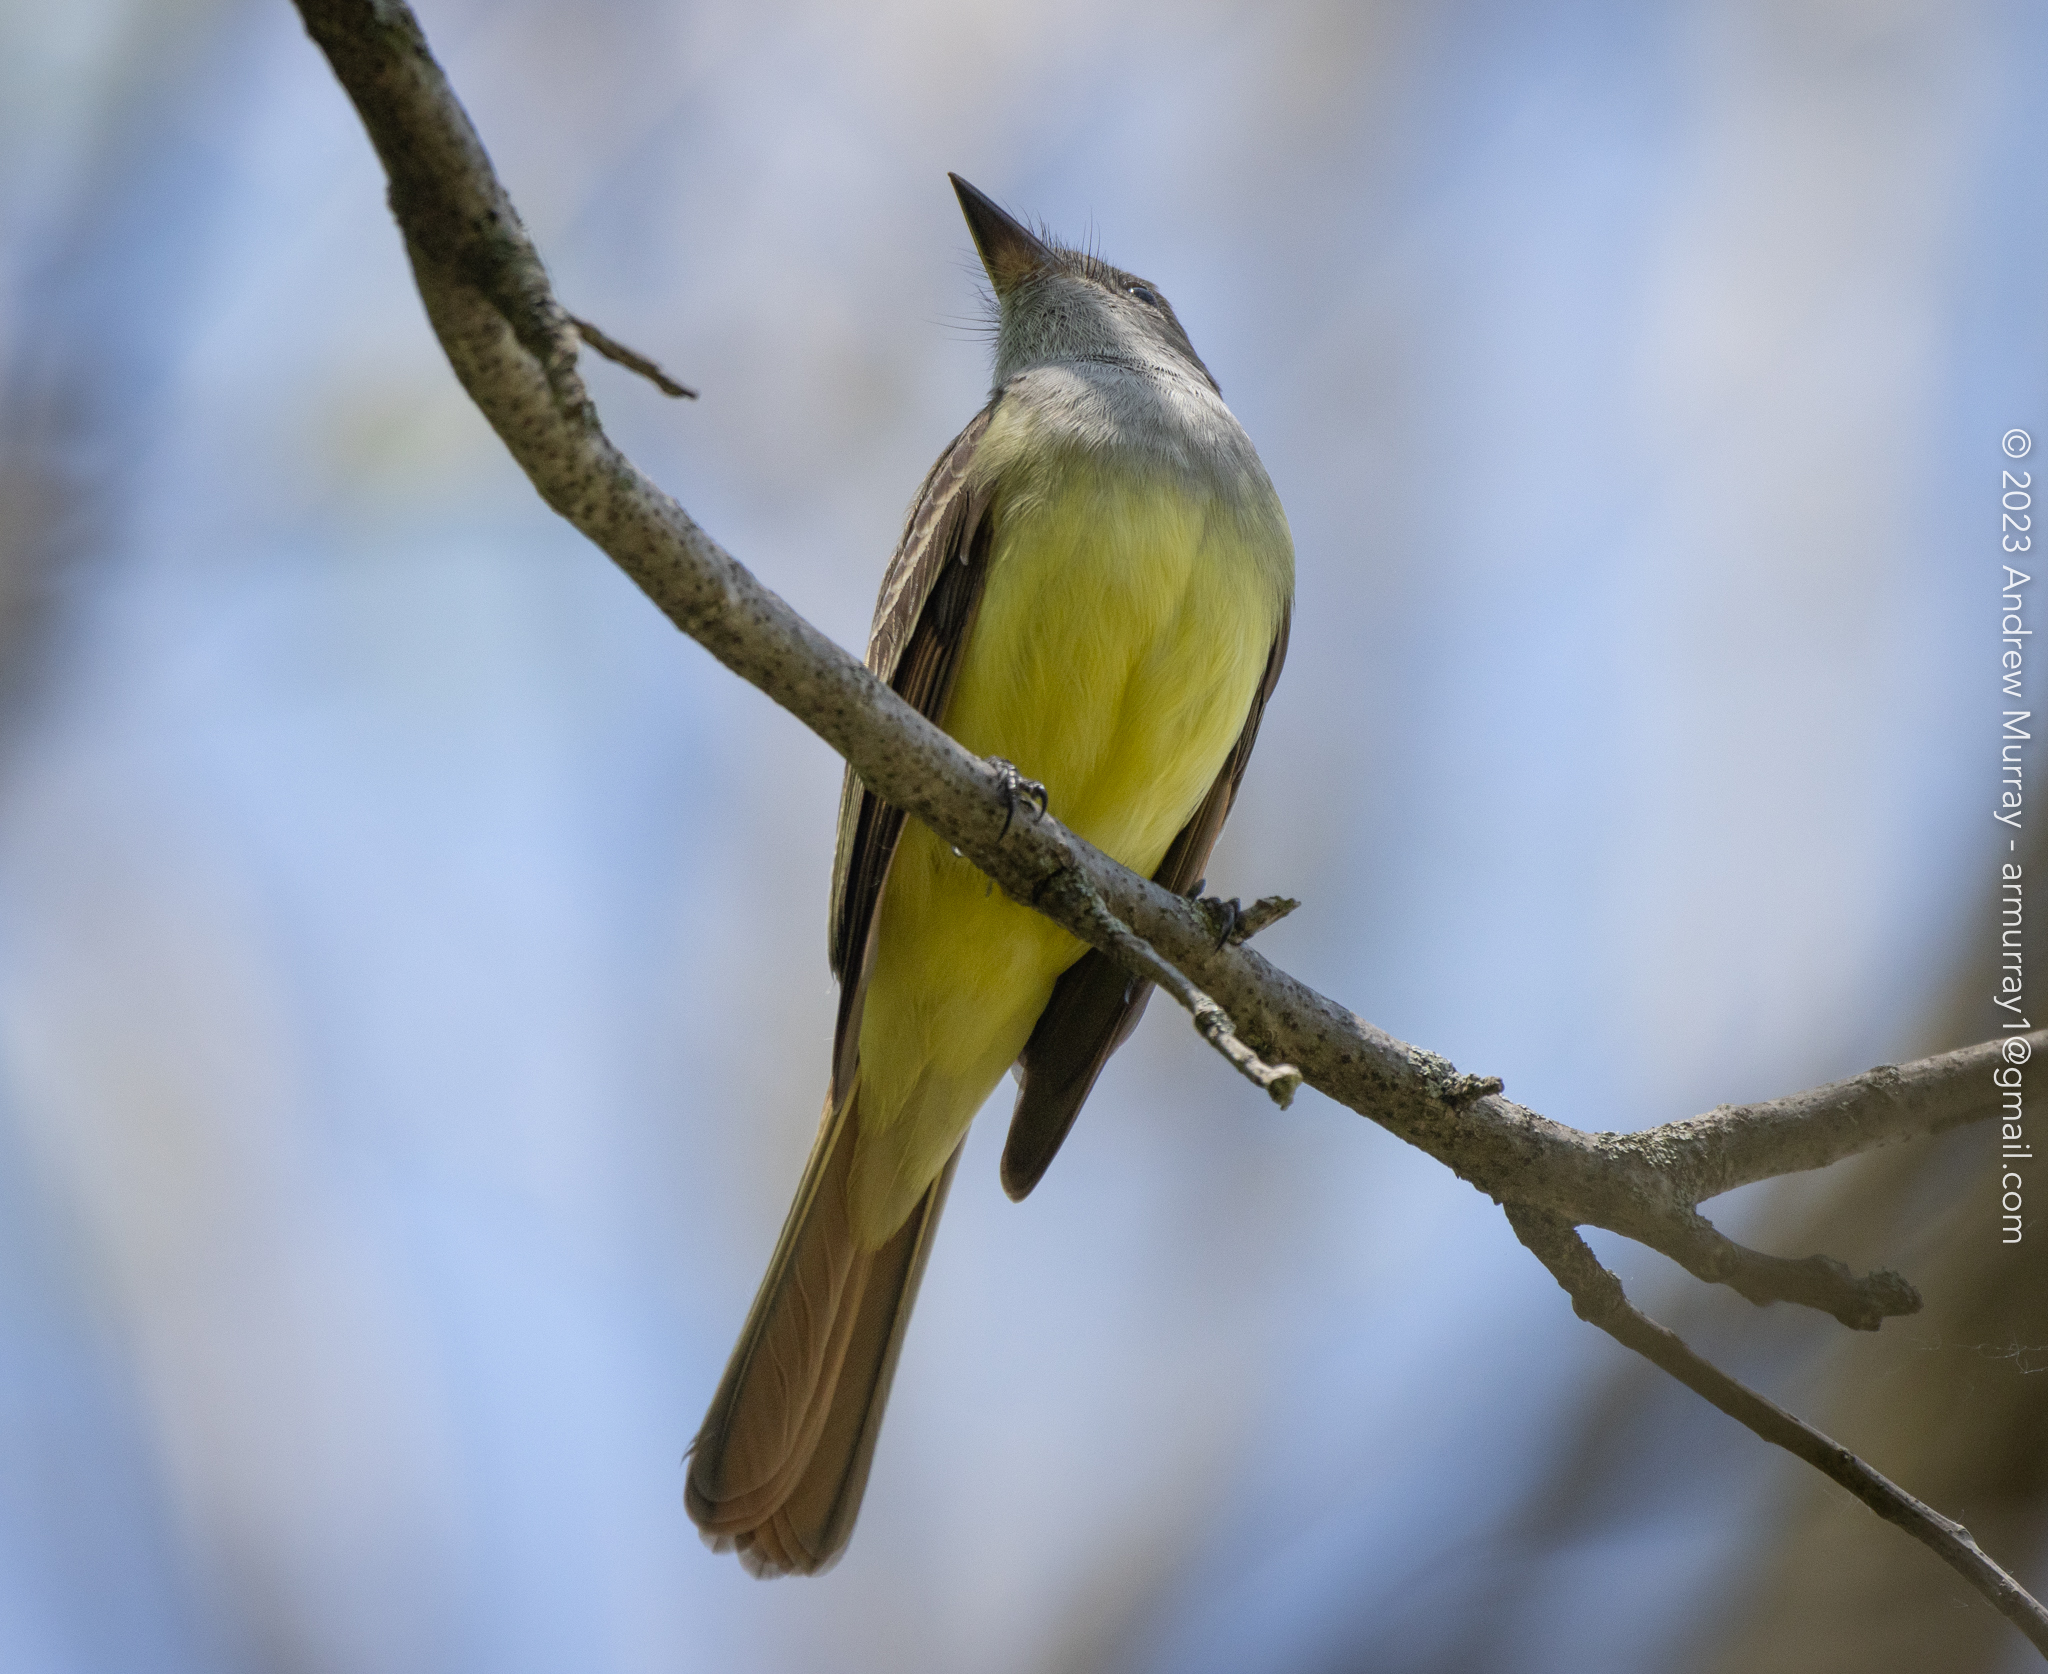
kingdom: Animalia
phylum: Chordata
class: Aves
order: Passeriformes
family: Tyrannidae
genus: Myiarchus
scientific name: Myiarchus crinitus
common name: Great crested flycatcher
